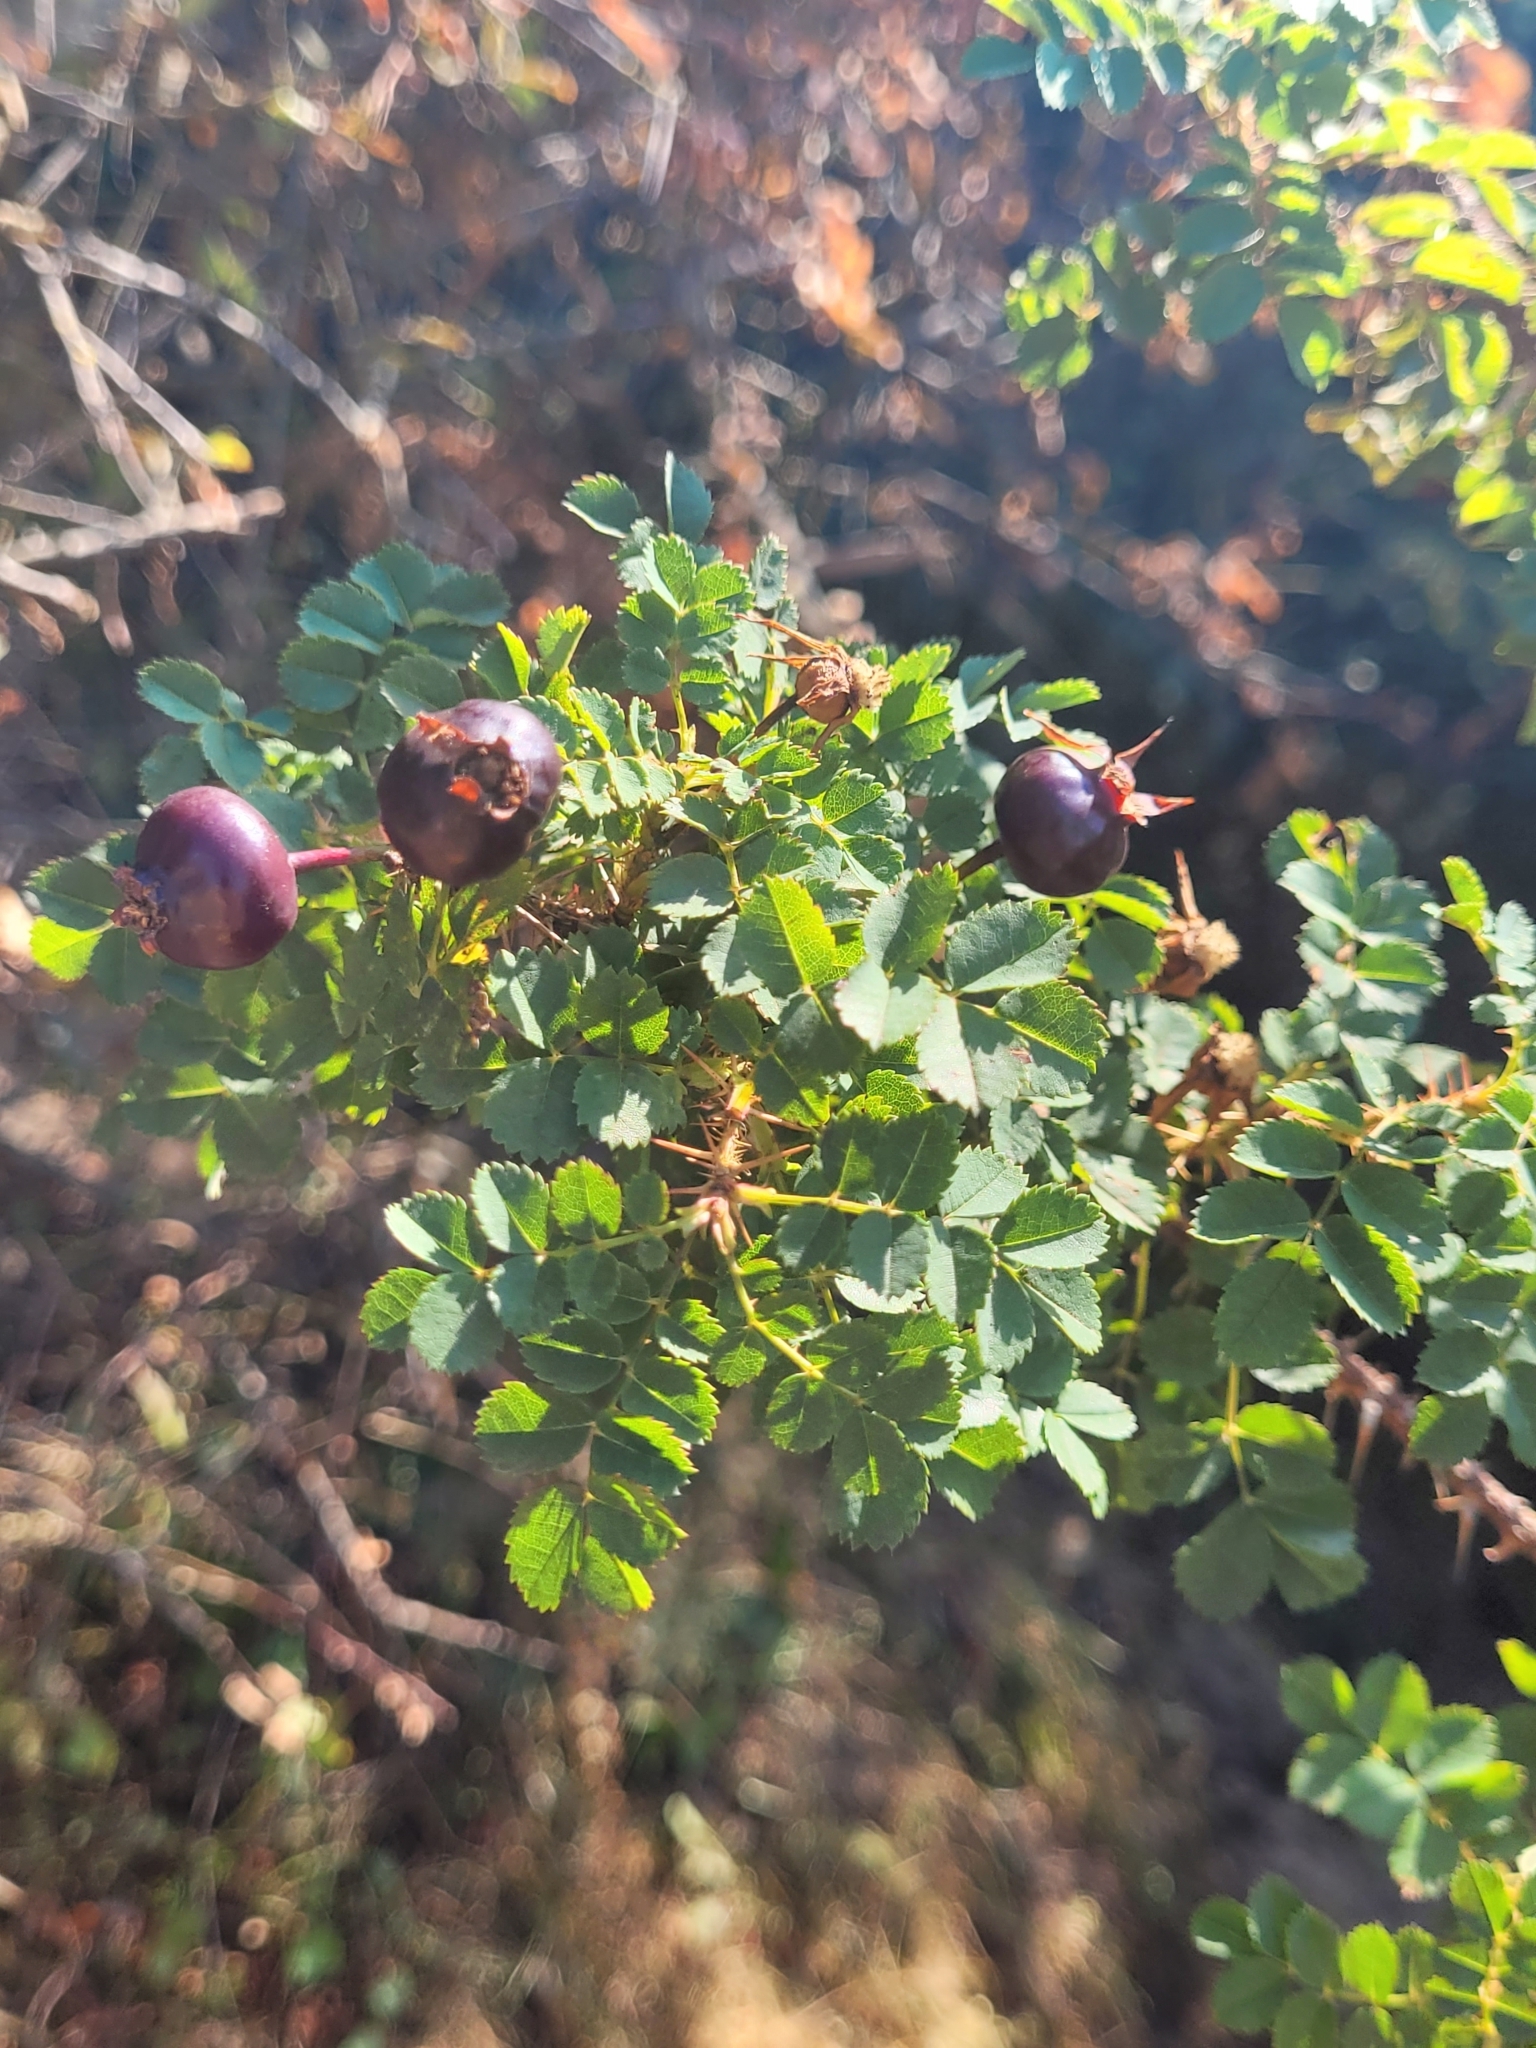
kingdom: Plantae
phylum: Tracheophyta
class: Magnoliopsida
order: Rosales
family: Rosaceae
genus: Rosa
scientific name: Rosa spinosissima
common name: Burnet rose
